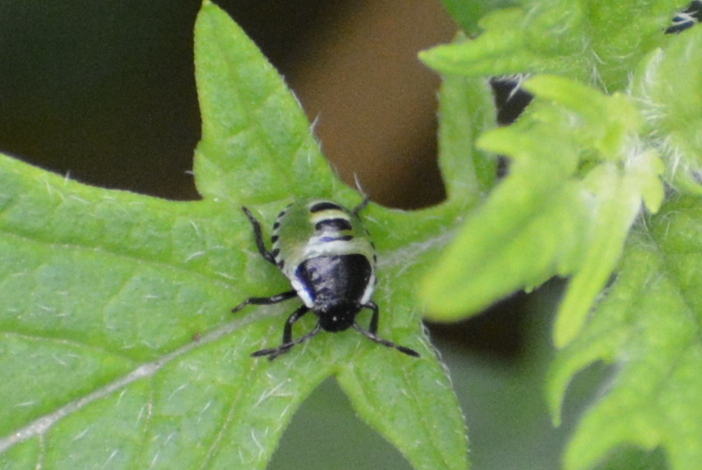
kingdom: Animalia
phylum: Arthropoda
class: Insecta
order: Hemiptera
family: Pentatomidae
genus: Palomena
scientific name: Palomena prasina
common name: Green shieldbug
